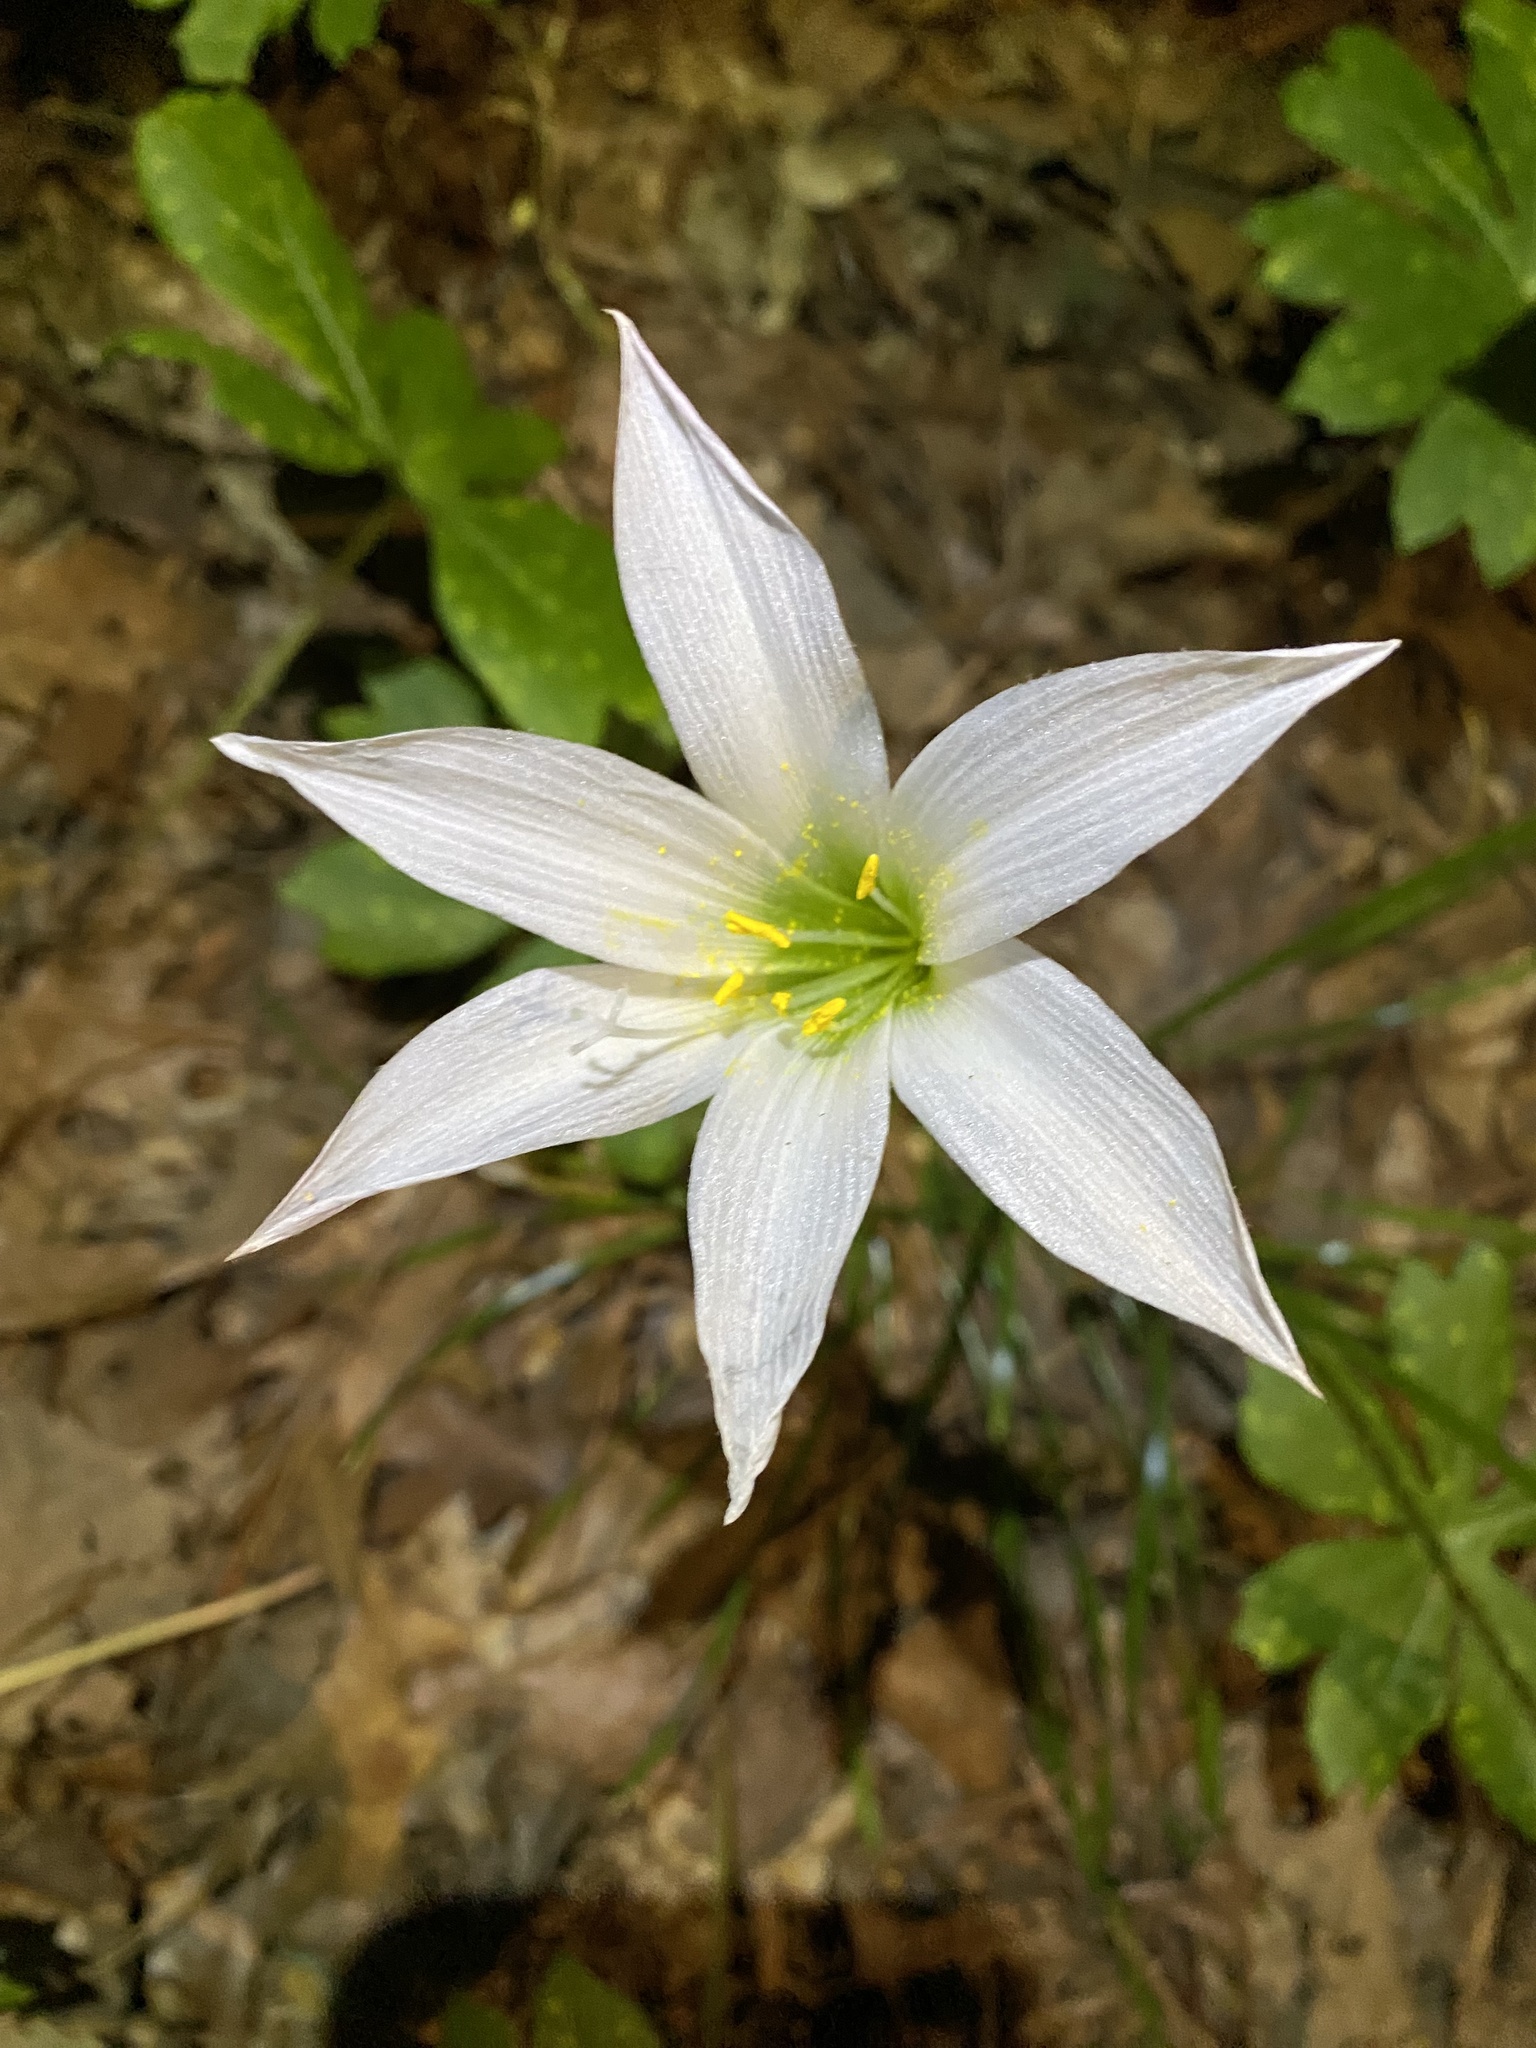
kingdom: Plantae
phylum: Tracheophyta
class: Liliopsida
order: Asparagales
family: Amaryllidaceae
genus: Zephyranthes
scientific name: Zephyranthes atamasco
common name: Atamasco lily
